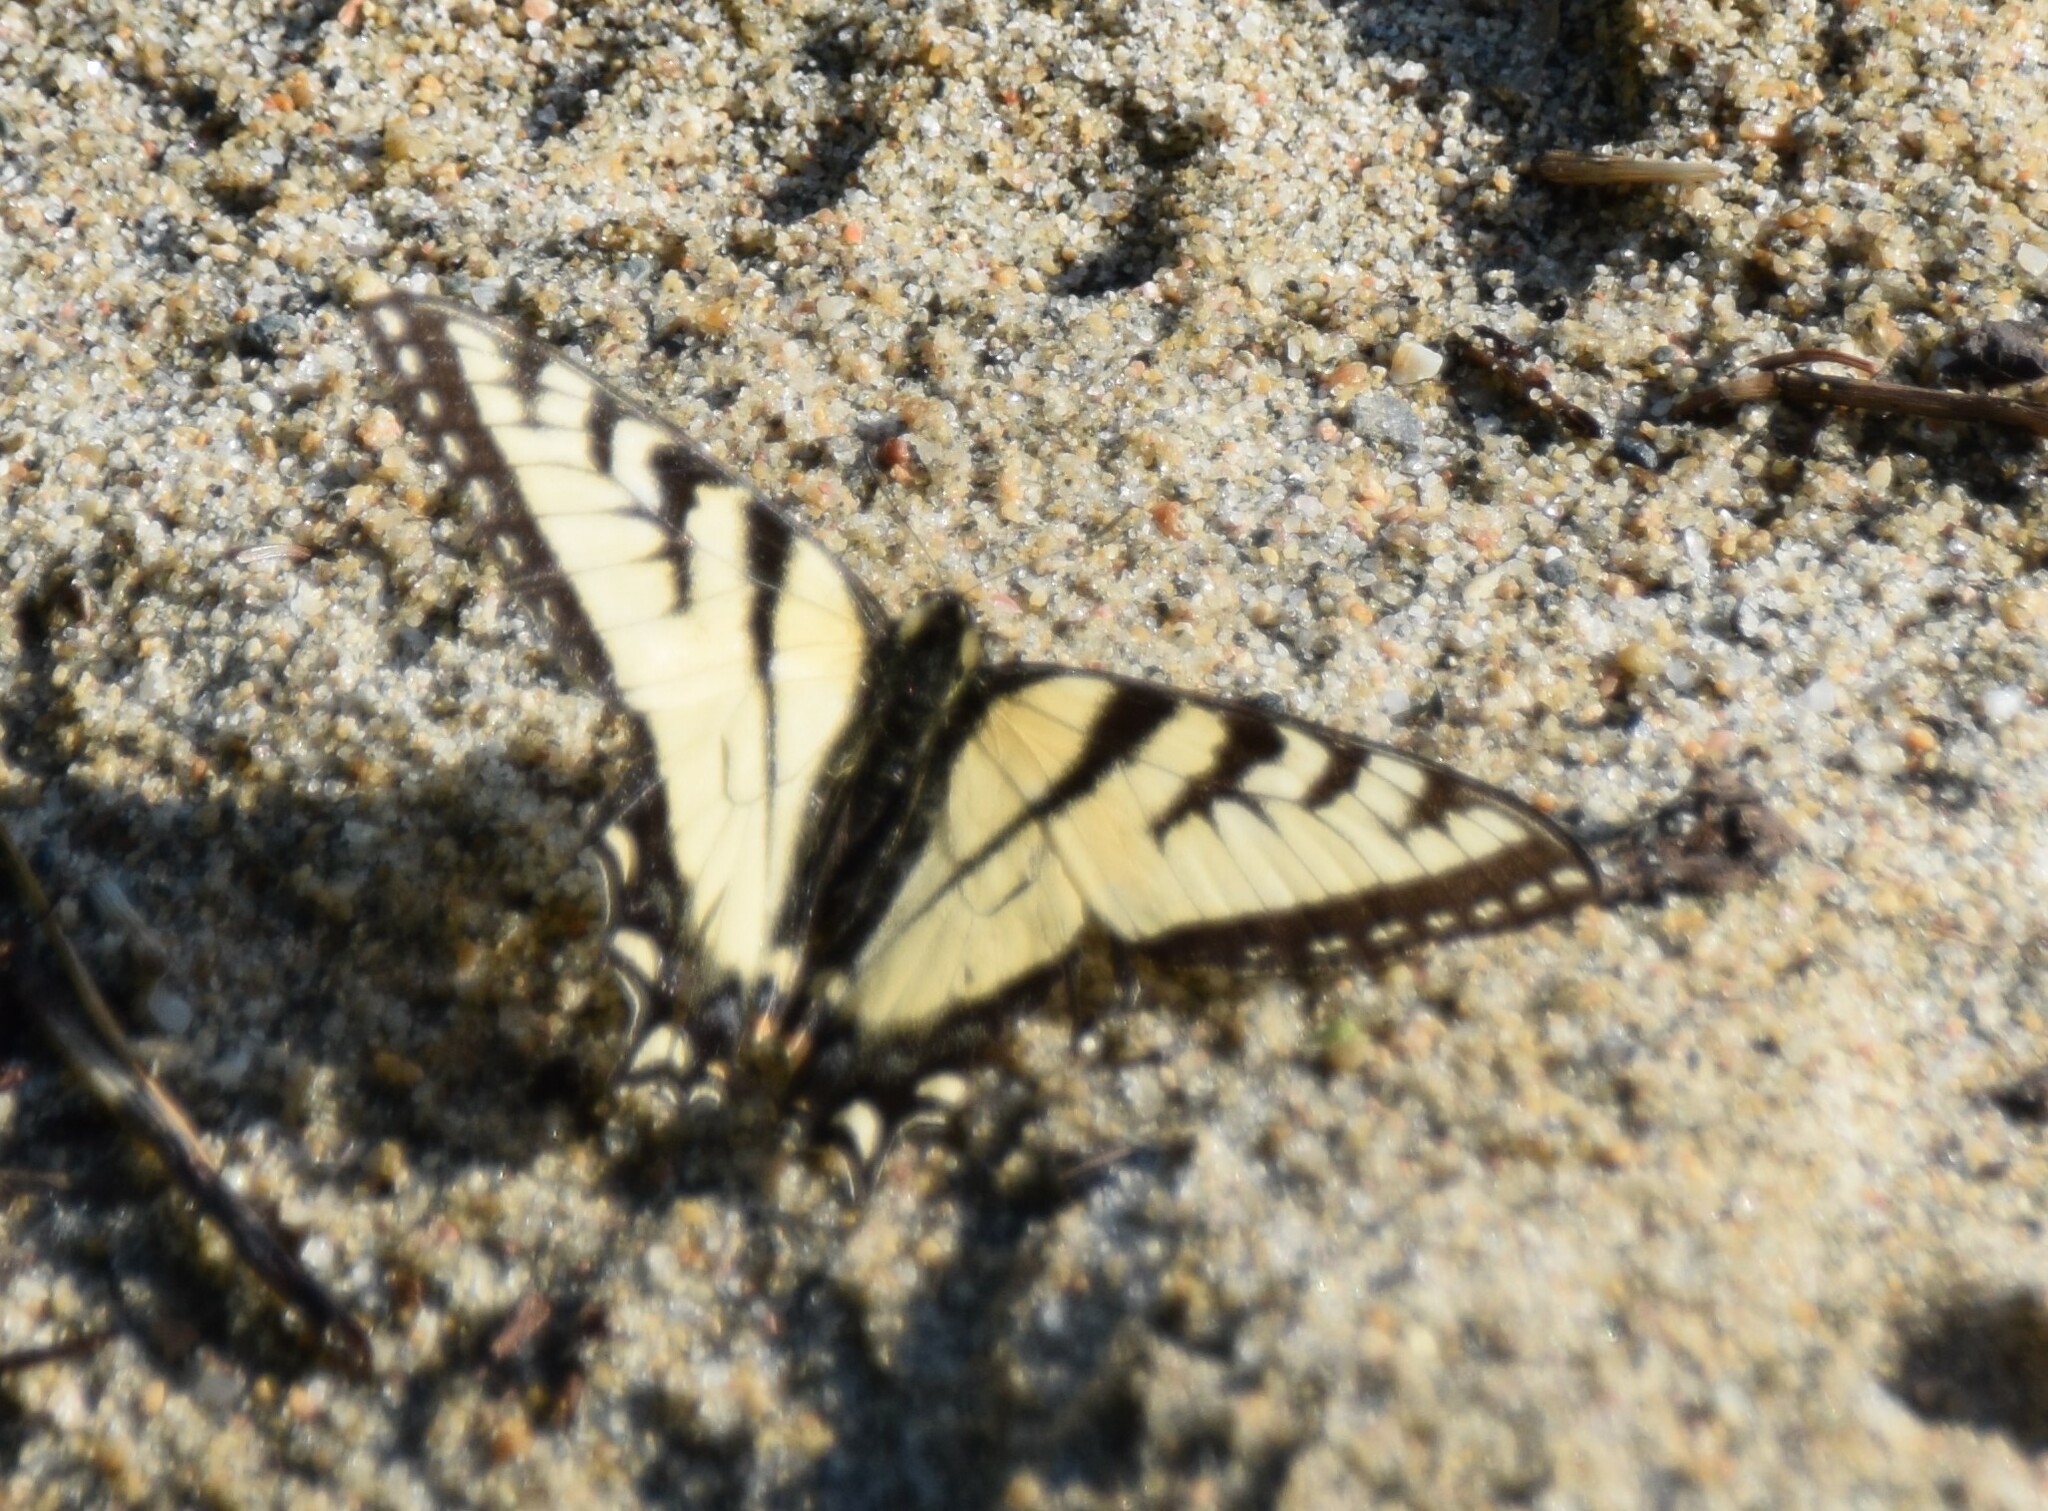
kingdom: Animalia
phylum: Arthropoda
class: Insecta
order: Lepidoptera
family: Papilionidae
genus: Papilio
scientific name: Papilio canadensis
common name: Canadian tiger swallowtail
